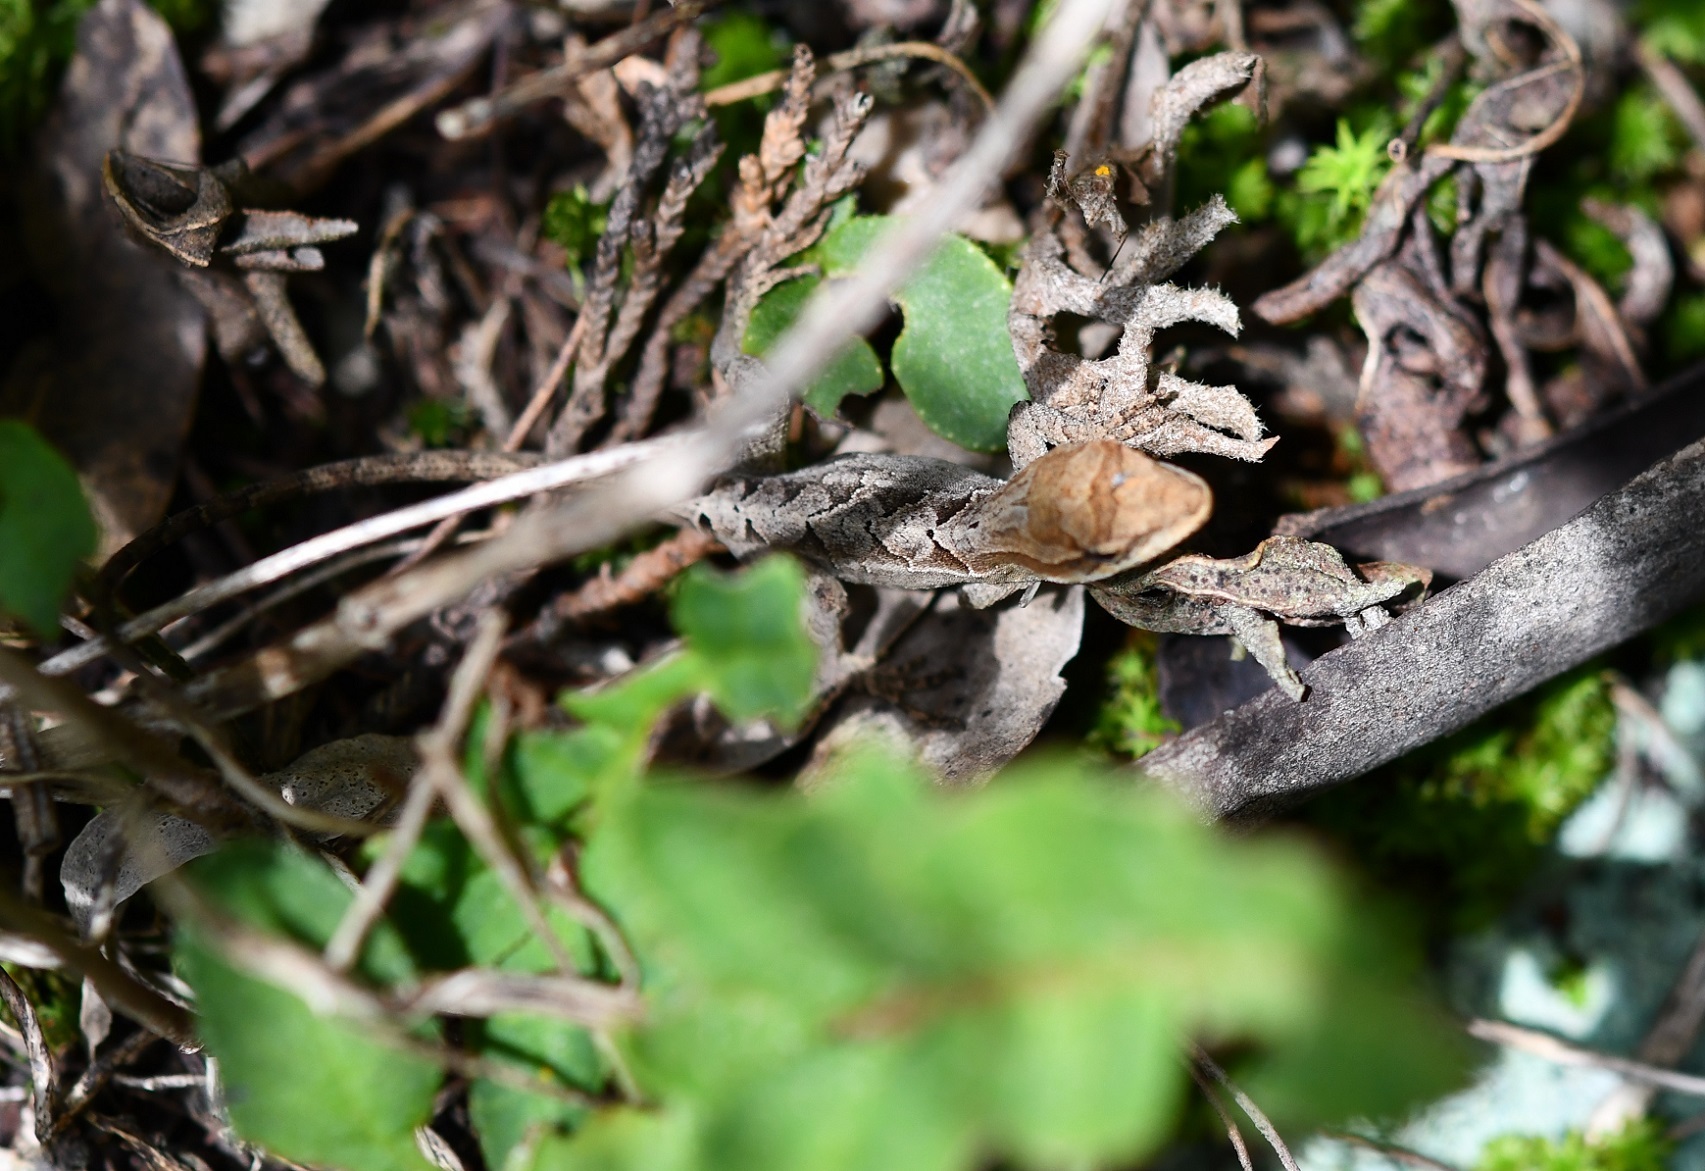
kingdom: Animalia
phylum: Chordata
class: Squamata
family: Dactyloidae
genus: Anolis
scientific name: Anolis anisolepis
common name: Chiapas ornate anole
